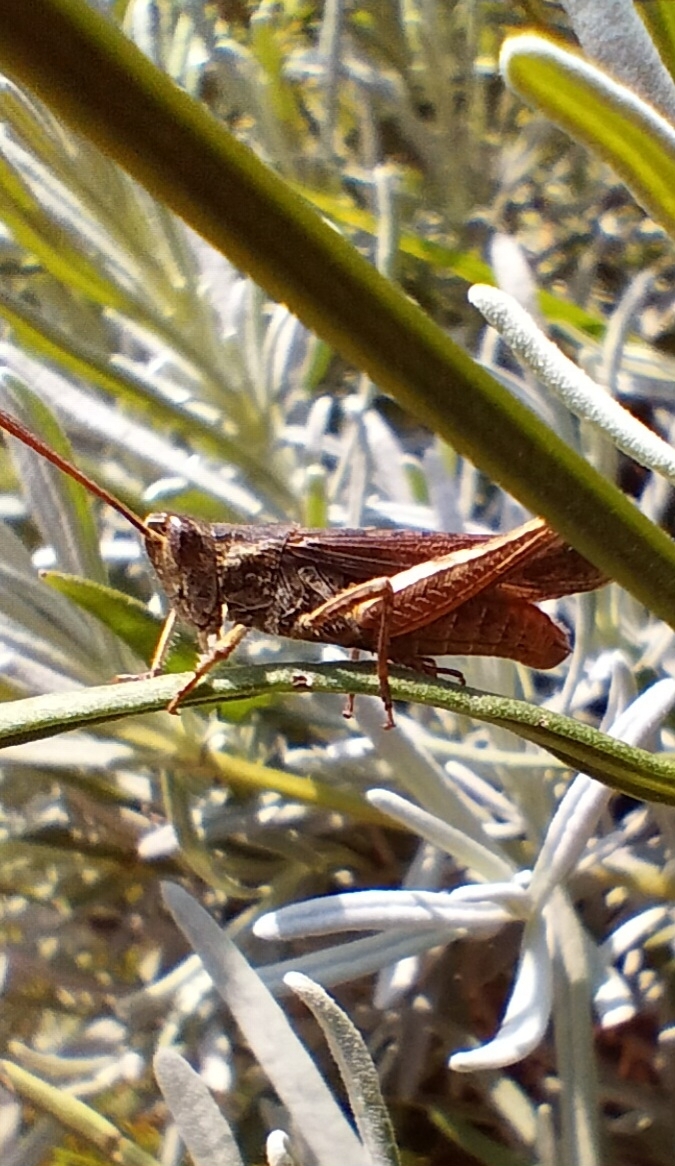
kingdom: Animalia
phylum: Arthropoda
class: Insecta
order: Orthoptera
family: Acrididae
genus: Chorthippus
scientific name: Chorthippus brunneus
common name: Field grasshopper
